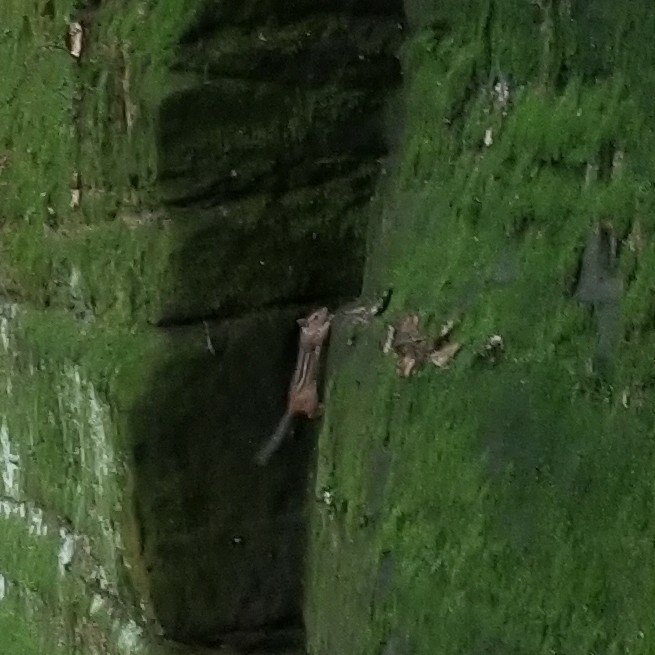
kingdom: Animalia
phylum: Chordata
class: Mammalia
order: Rodentia
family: Sciuridae
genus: Tamias
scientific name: Tamias striatus
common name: Eastern chipmunk
